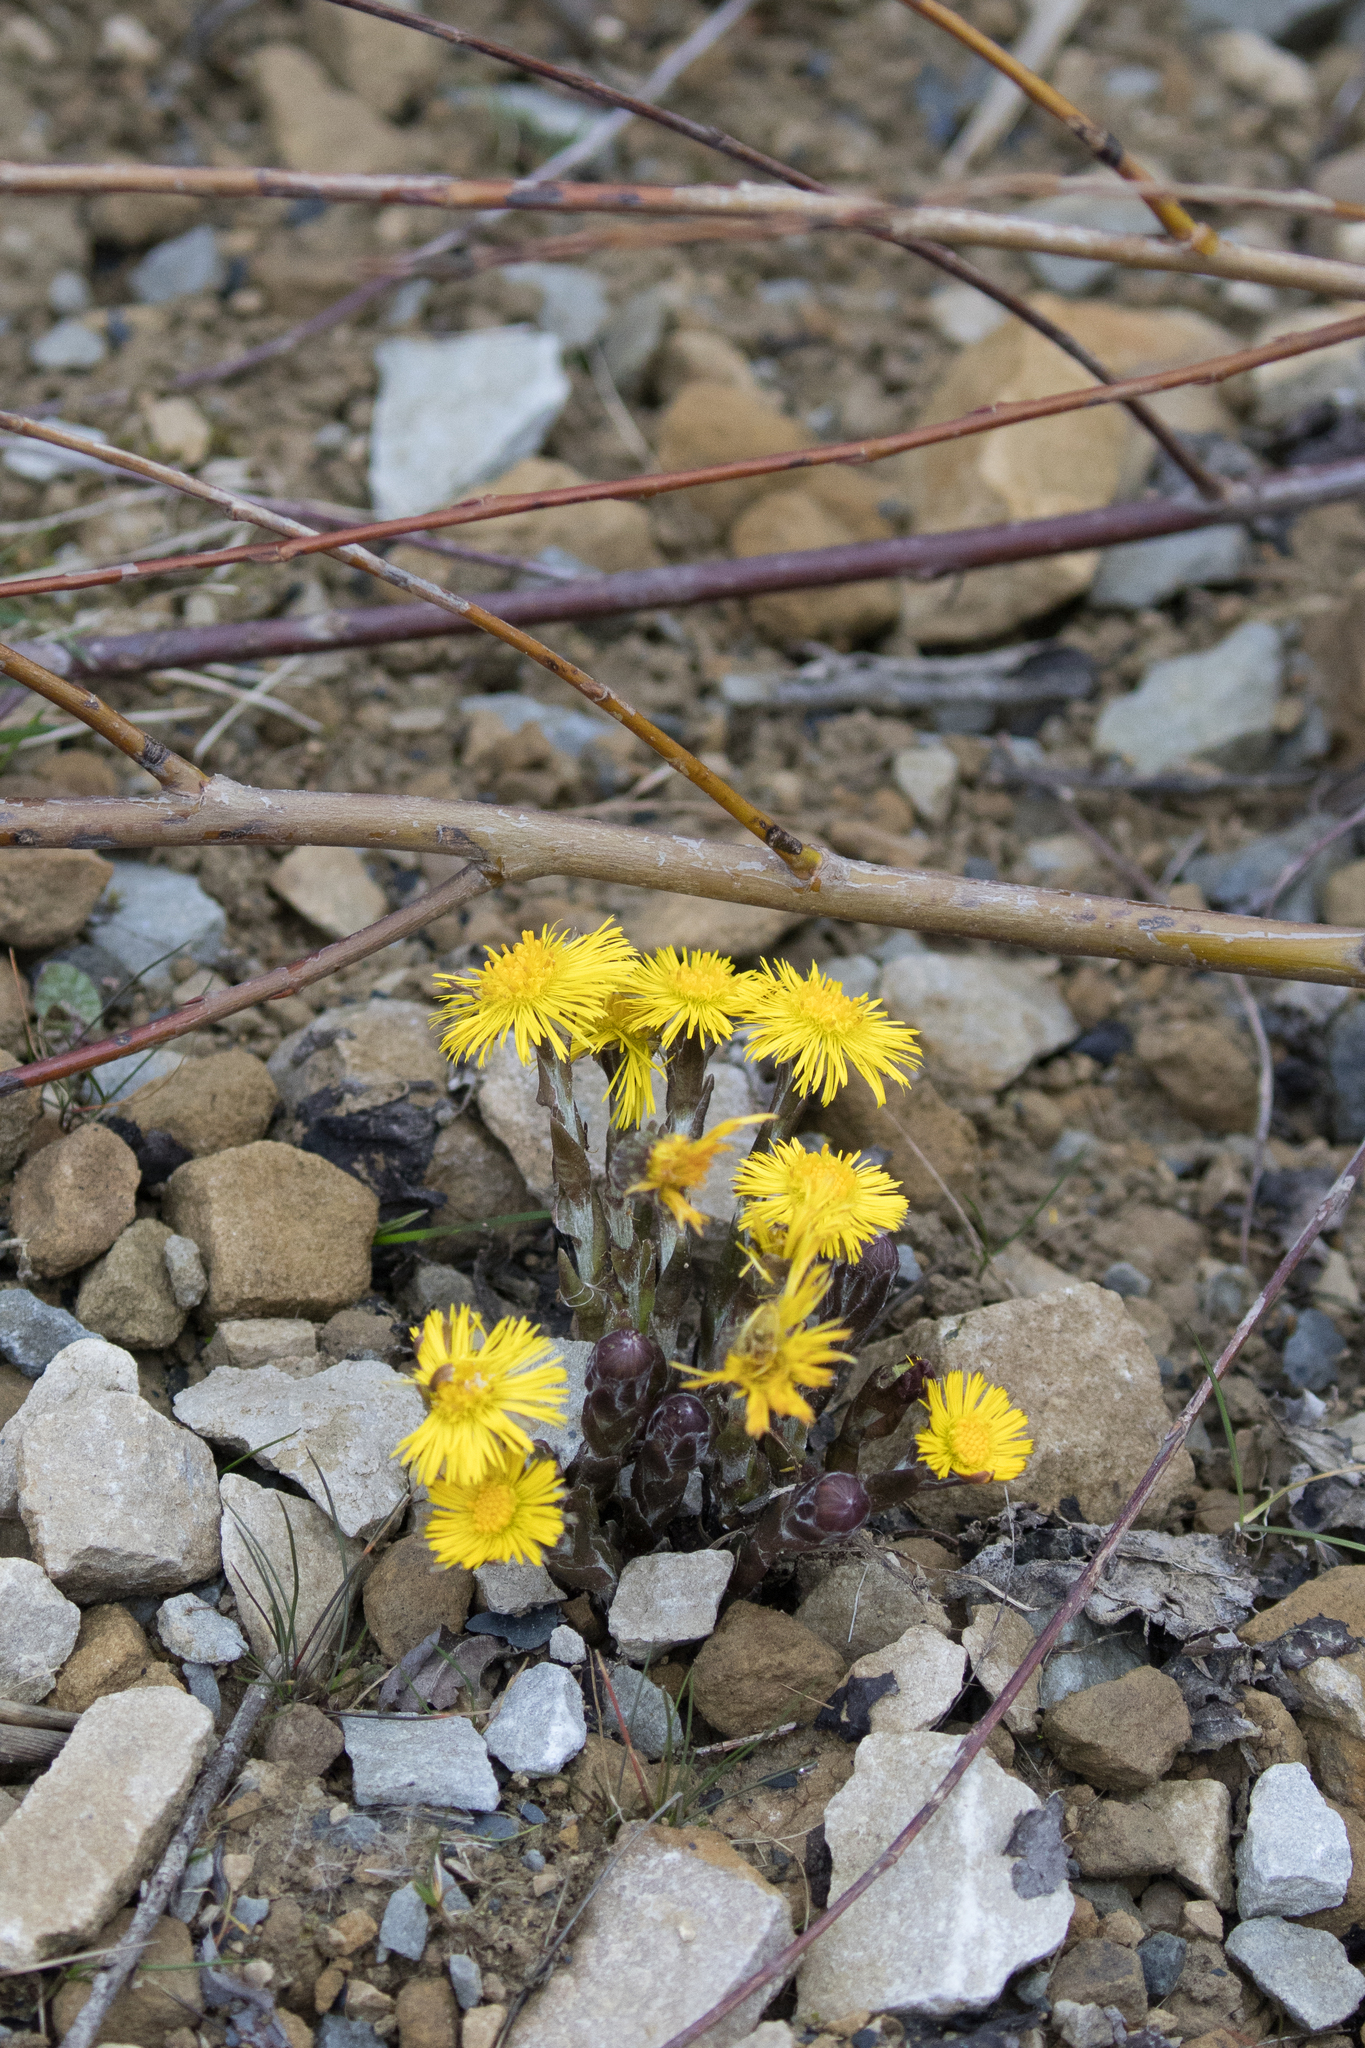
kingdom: Plantae
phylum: Tracheophyta
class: Magnoliopsida
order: Asterales
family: Asteraceae
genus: Tussilago
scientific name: Tussilago farfara
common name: Coltsfoot
